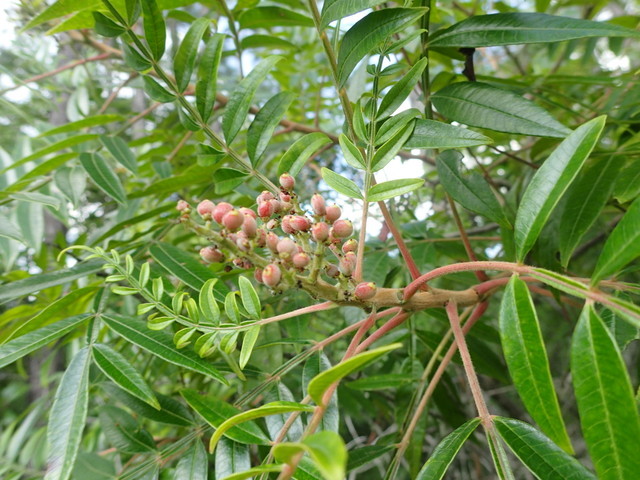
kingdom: Plantae
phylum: Tracheophyta
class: Magnoliopsida
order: Sapindales
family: Anacardiaceae
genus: Rhus
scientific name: Rhus copallina
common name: Shining sumac
